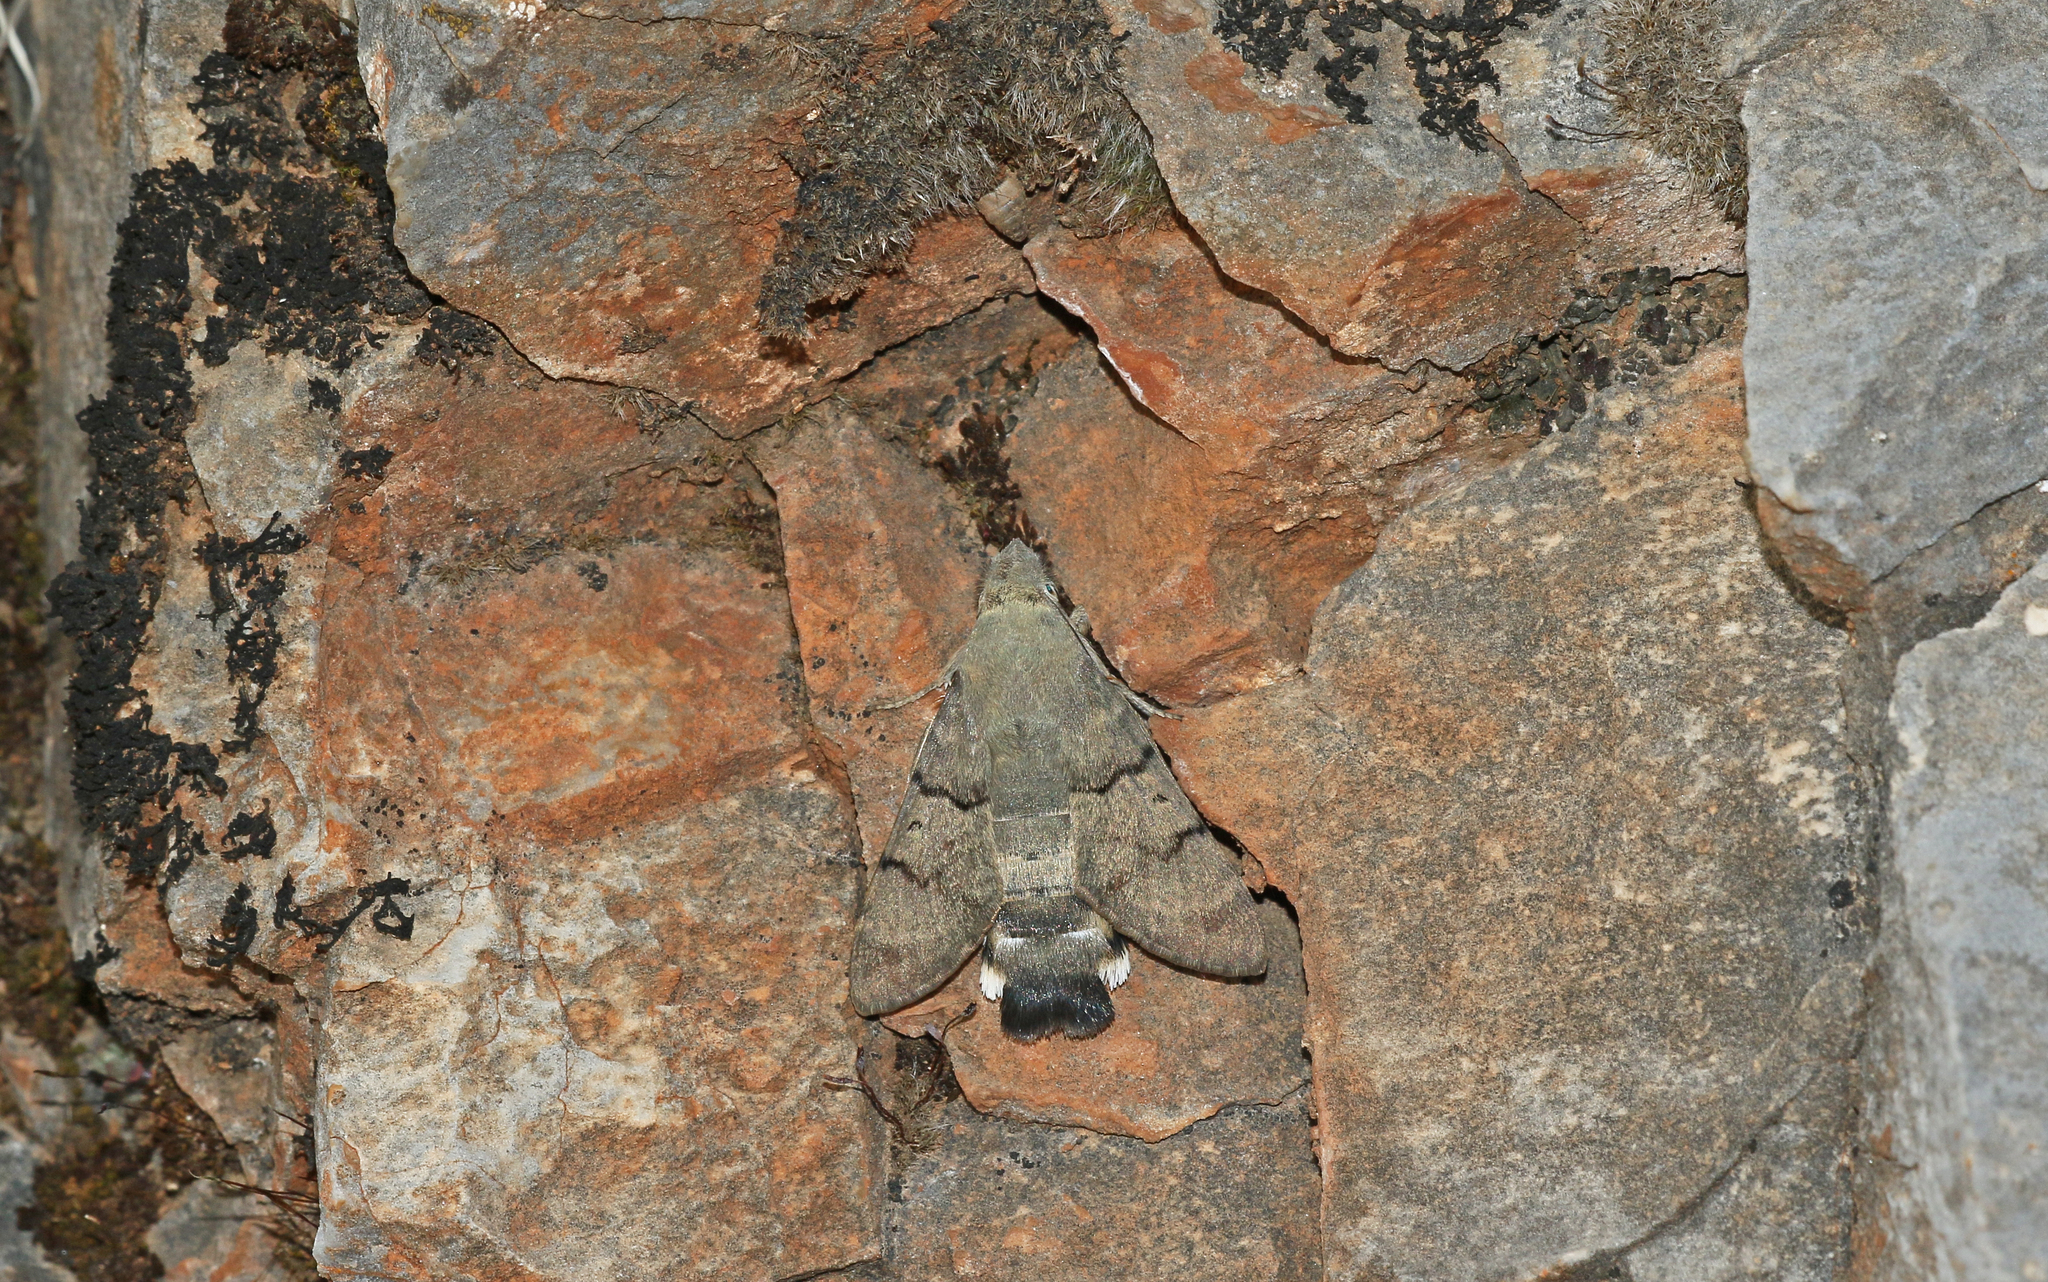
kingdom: Animalia
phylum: Arthropoda
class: Insecta
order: Lepidoptera
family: Sphingidae
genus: Macroglossum
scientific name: Macroglossum stellatarum
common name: Humming-bird hawk-moth
